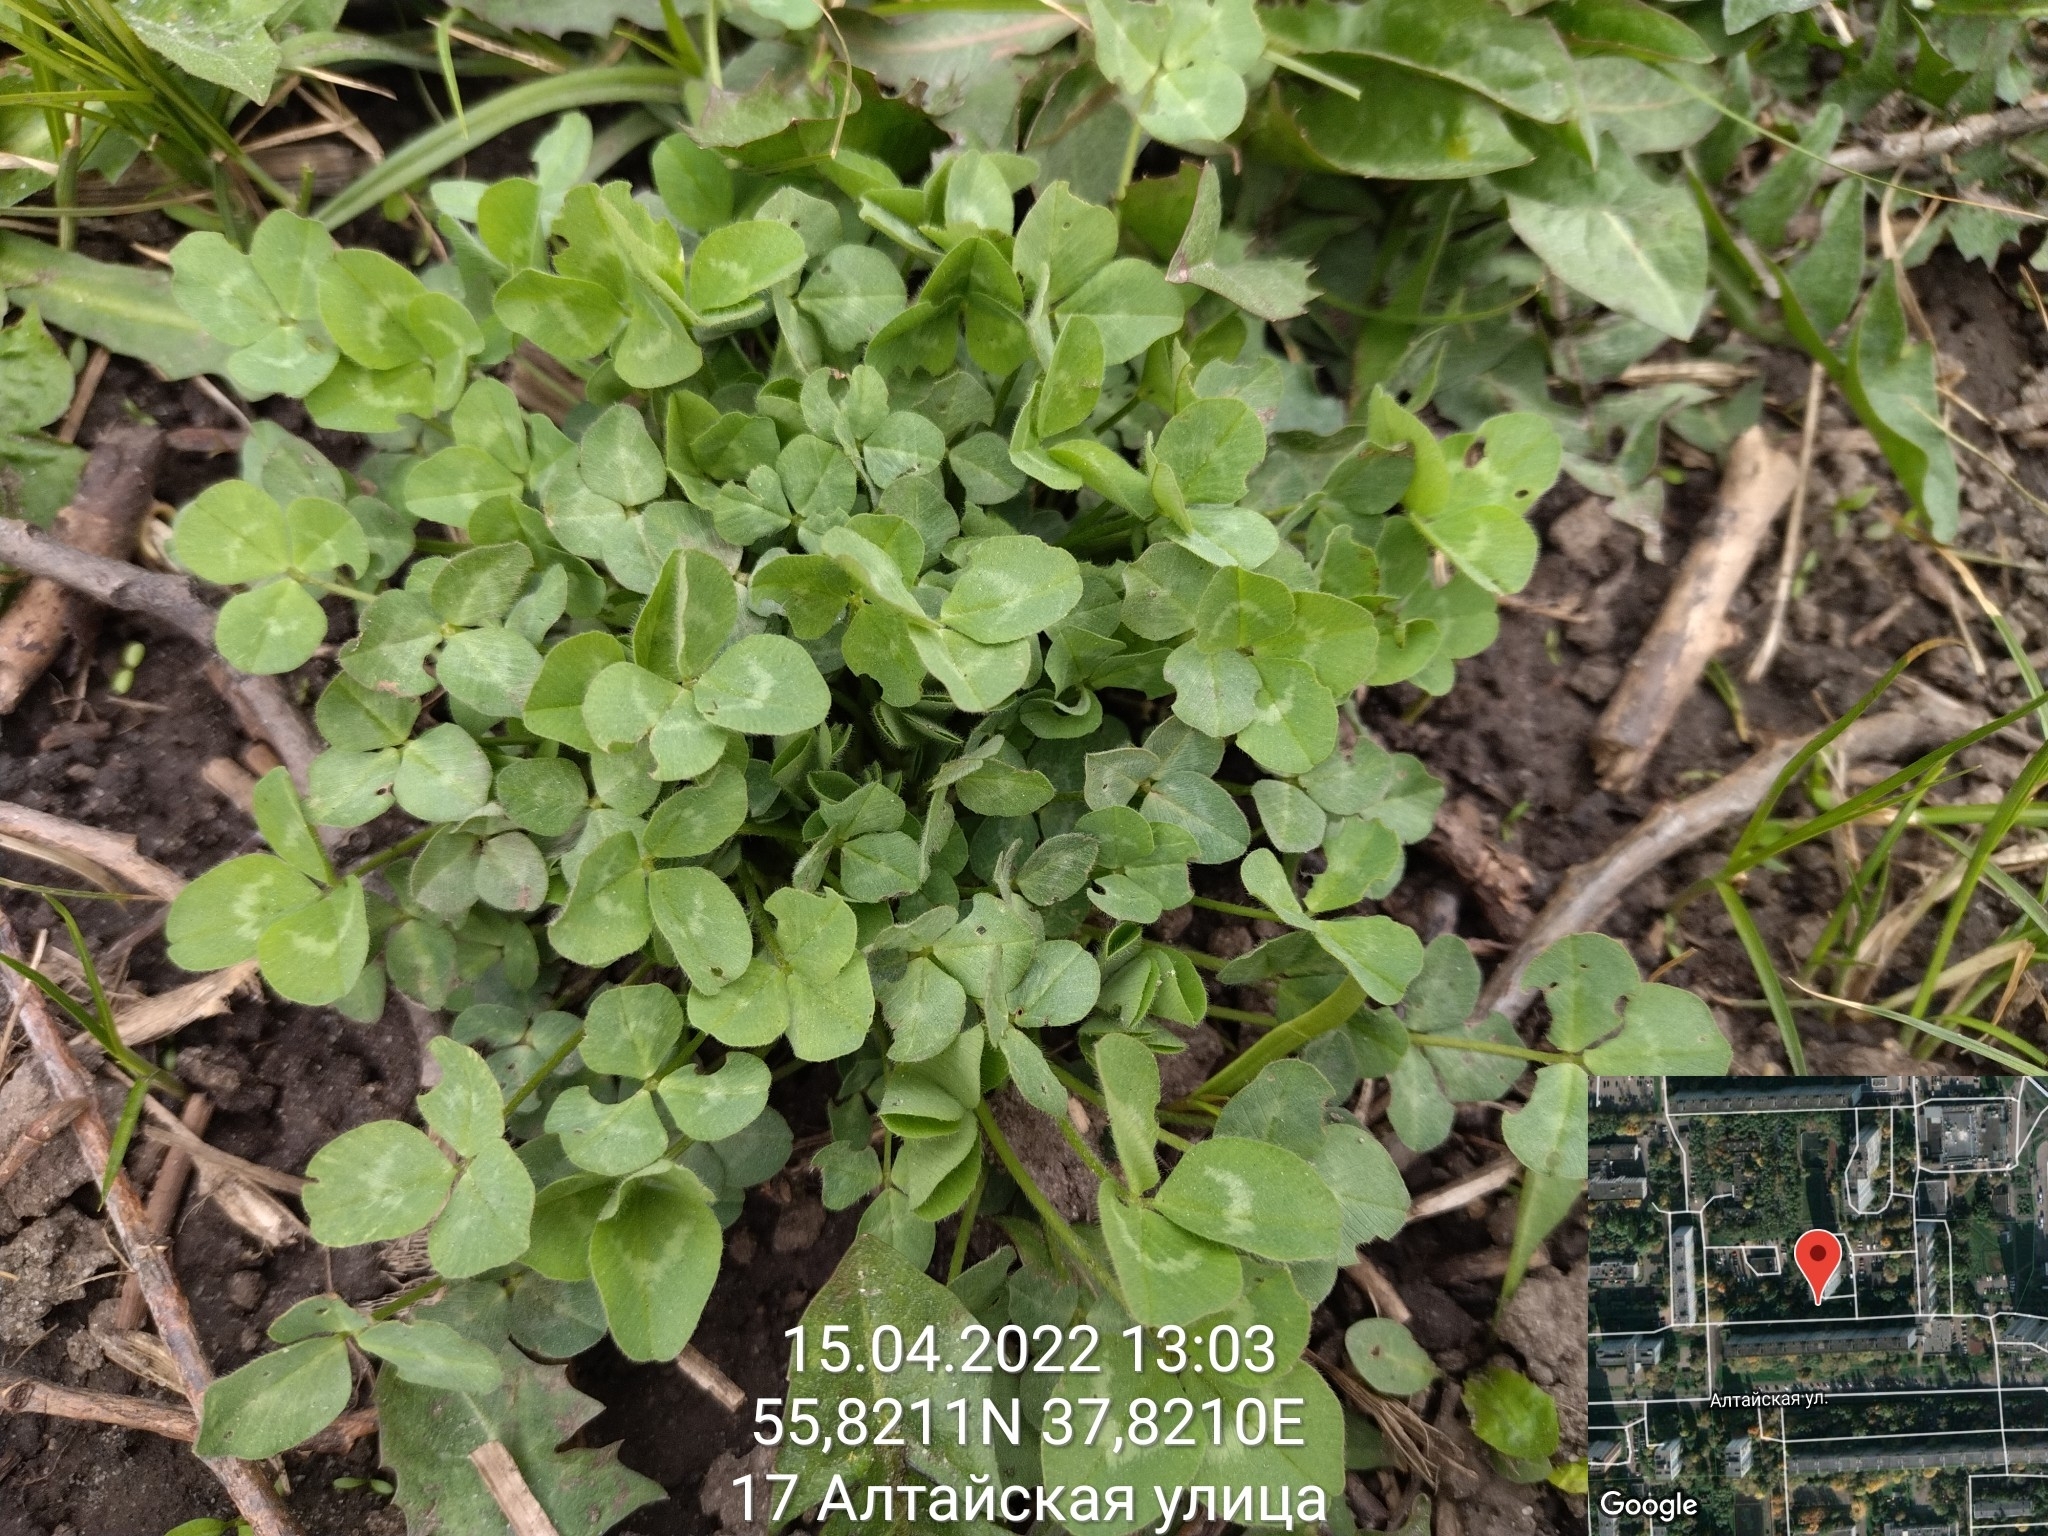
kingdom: Plantae
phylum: Tracheophyta
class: Magnoliopsida
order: Fabales
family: Fabaceae
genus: Trifolium
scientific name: Trifolium repens
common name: White clover
